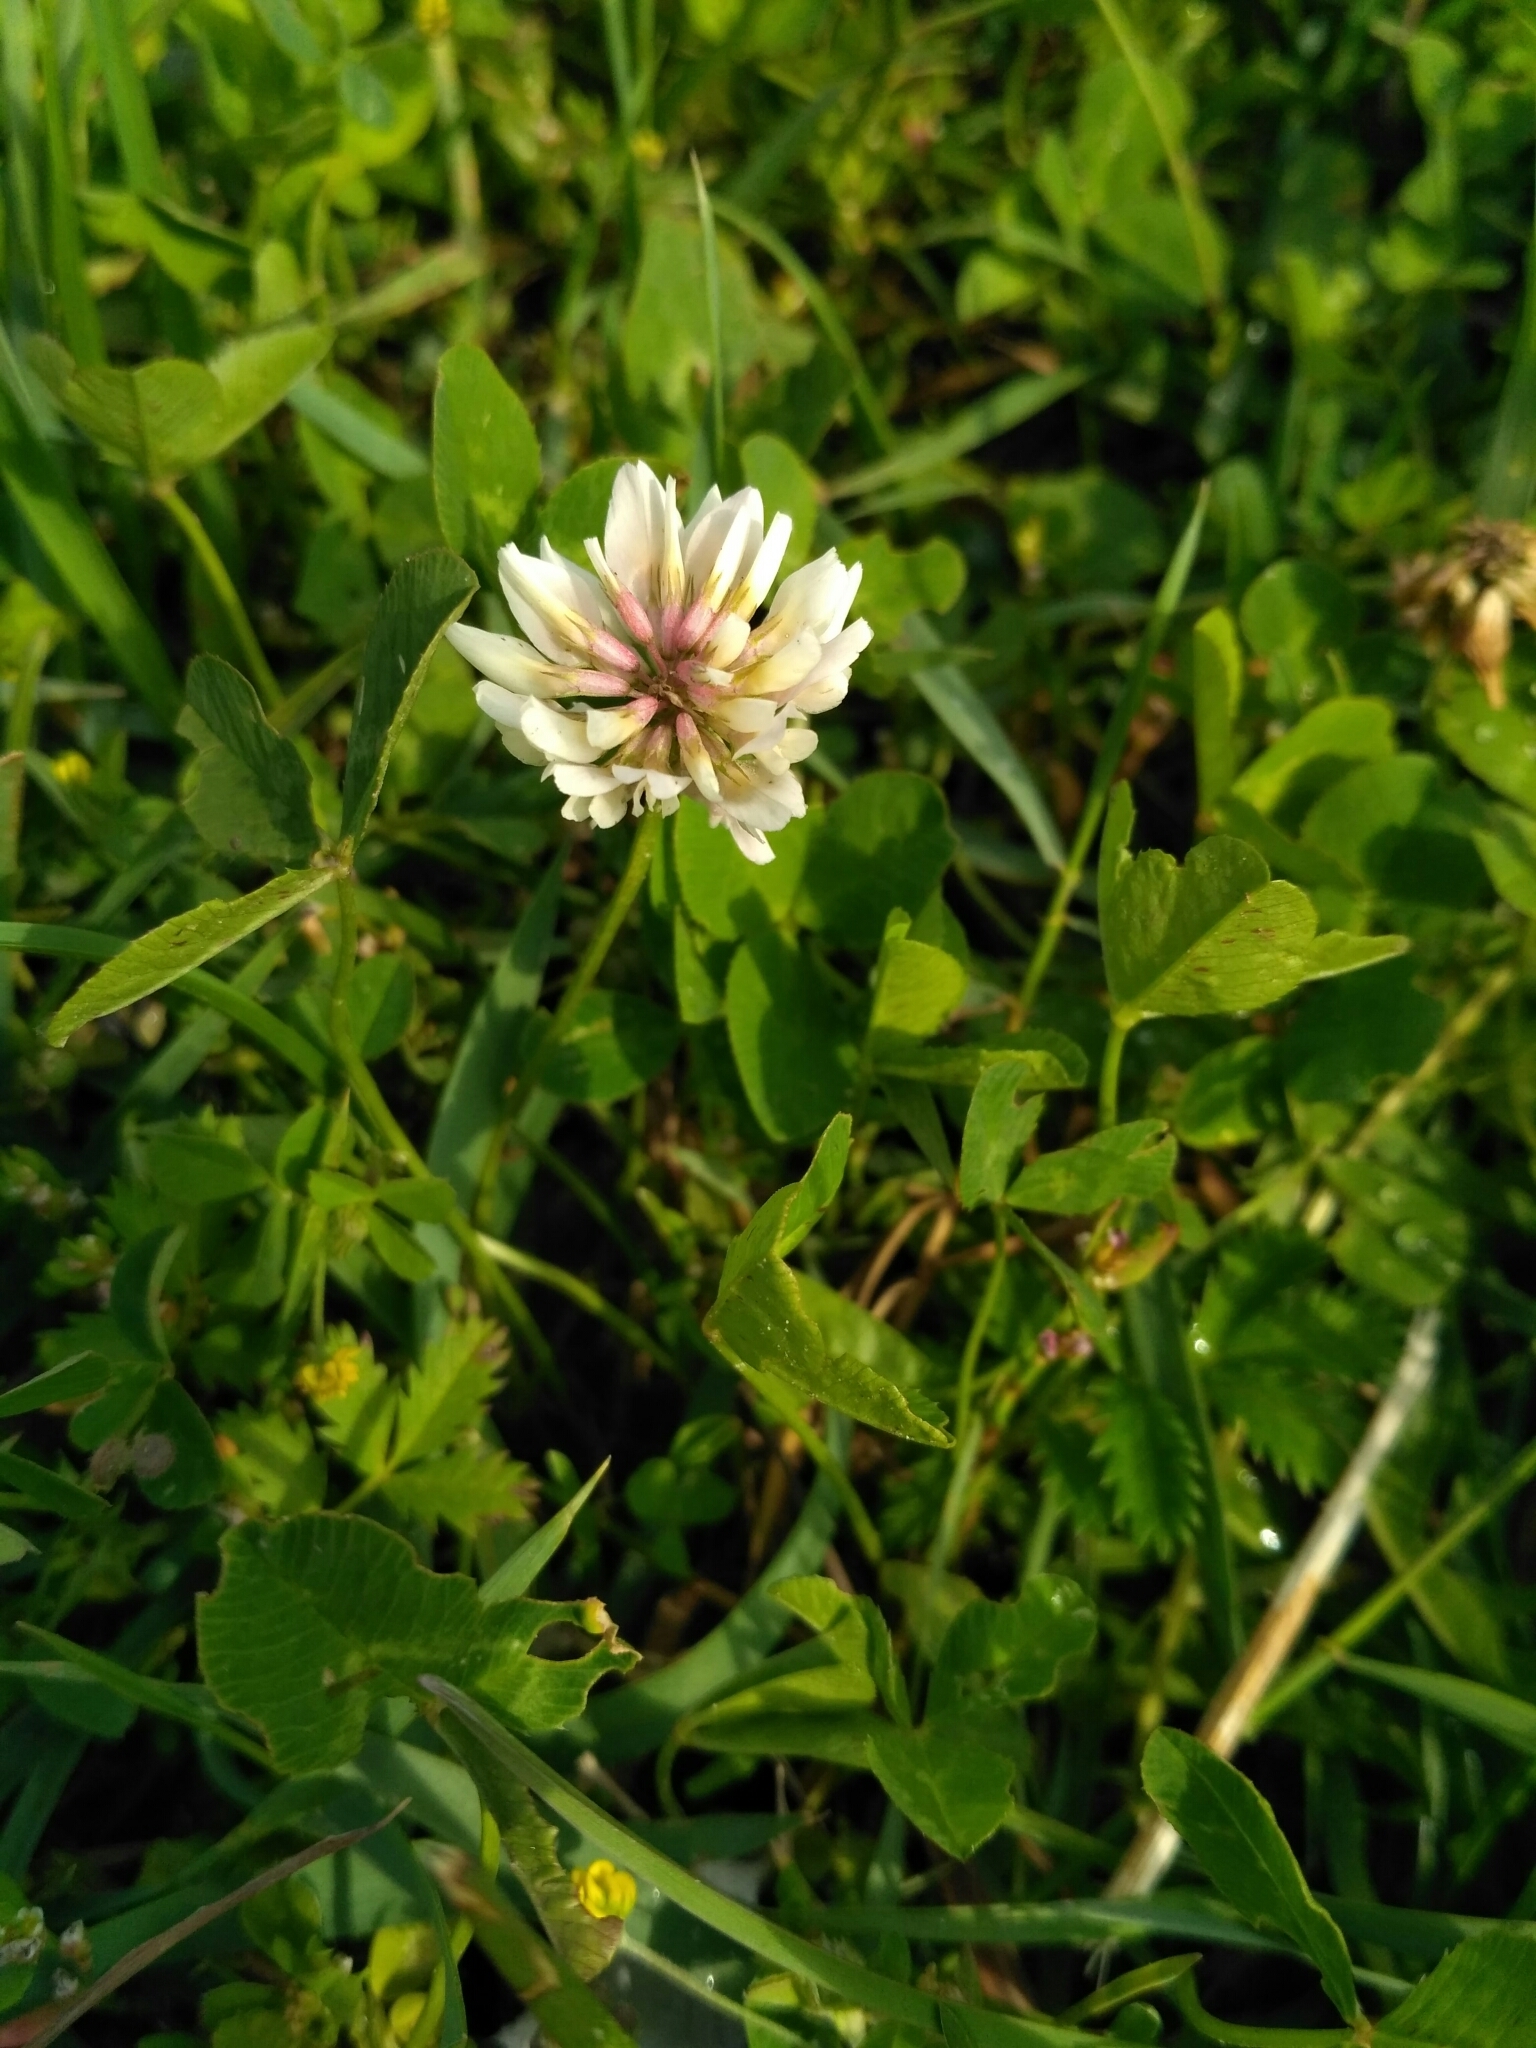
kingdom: Plantae
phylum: Tracheophyta
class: Magnoliopsida
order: Fabales
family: Fabaceae
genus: Trifolium
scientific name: Trifolium repens
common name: White clover
